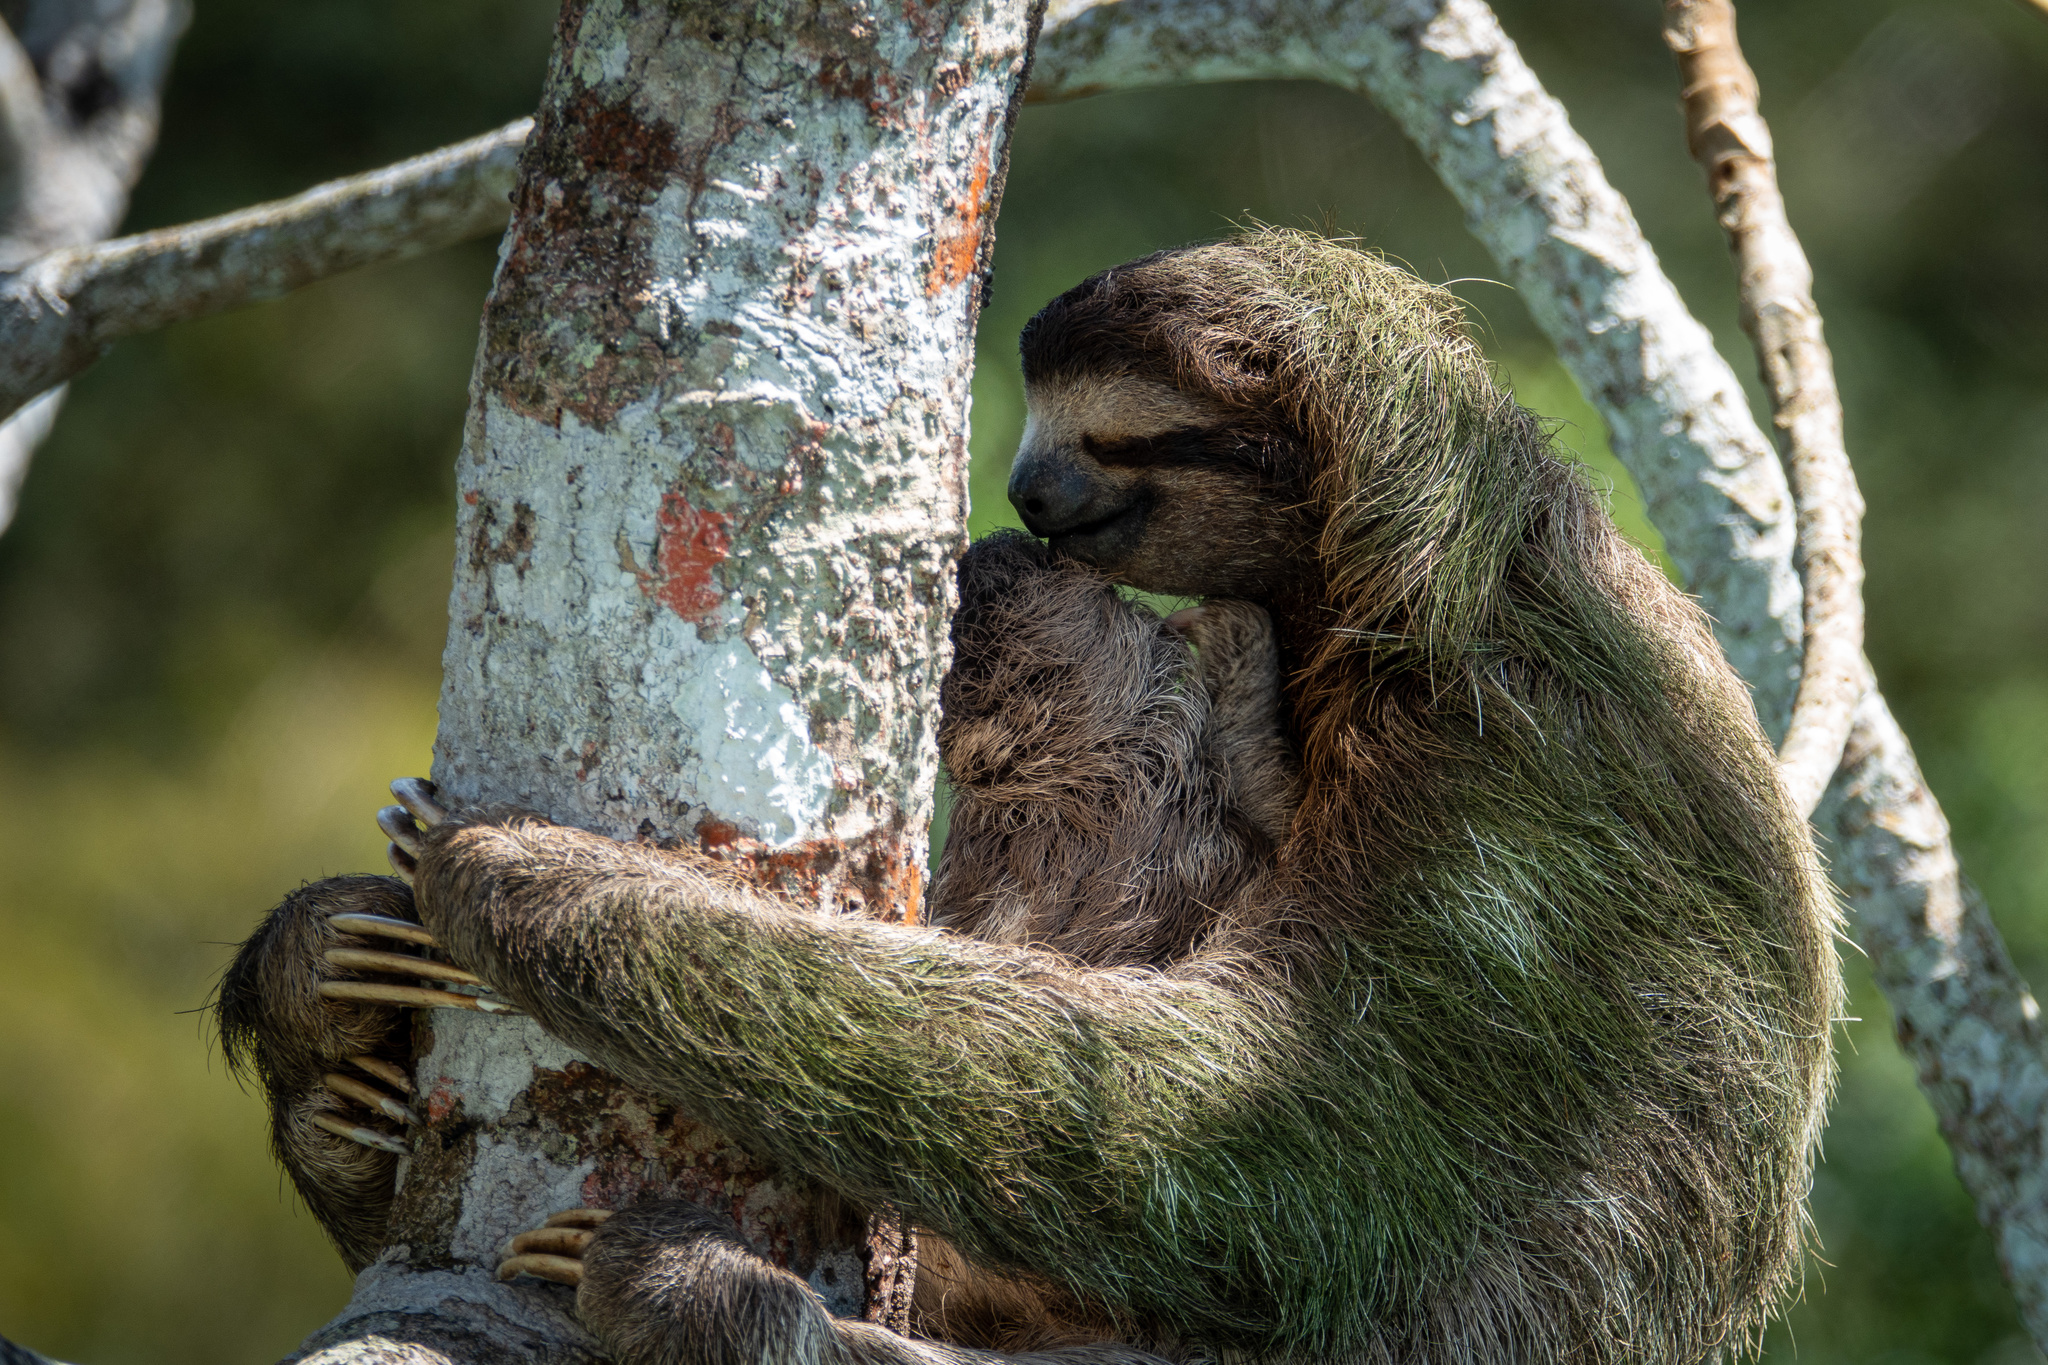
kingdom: Animalia
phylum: Chordata
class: Mammalia
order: Pilosa
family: Bradypodidae
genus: Bradypus
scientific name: Bradypus variegatus
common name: Brown-throated three-toed sloth
